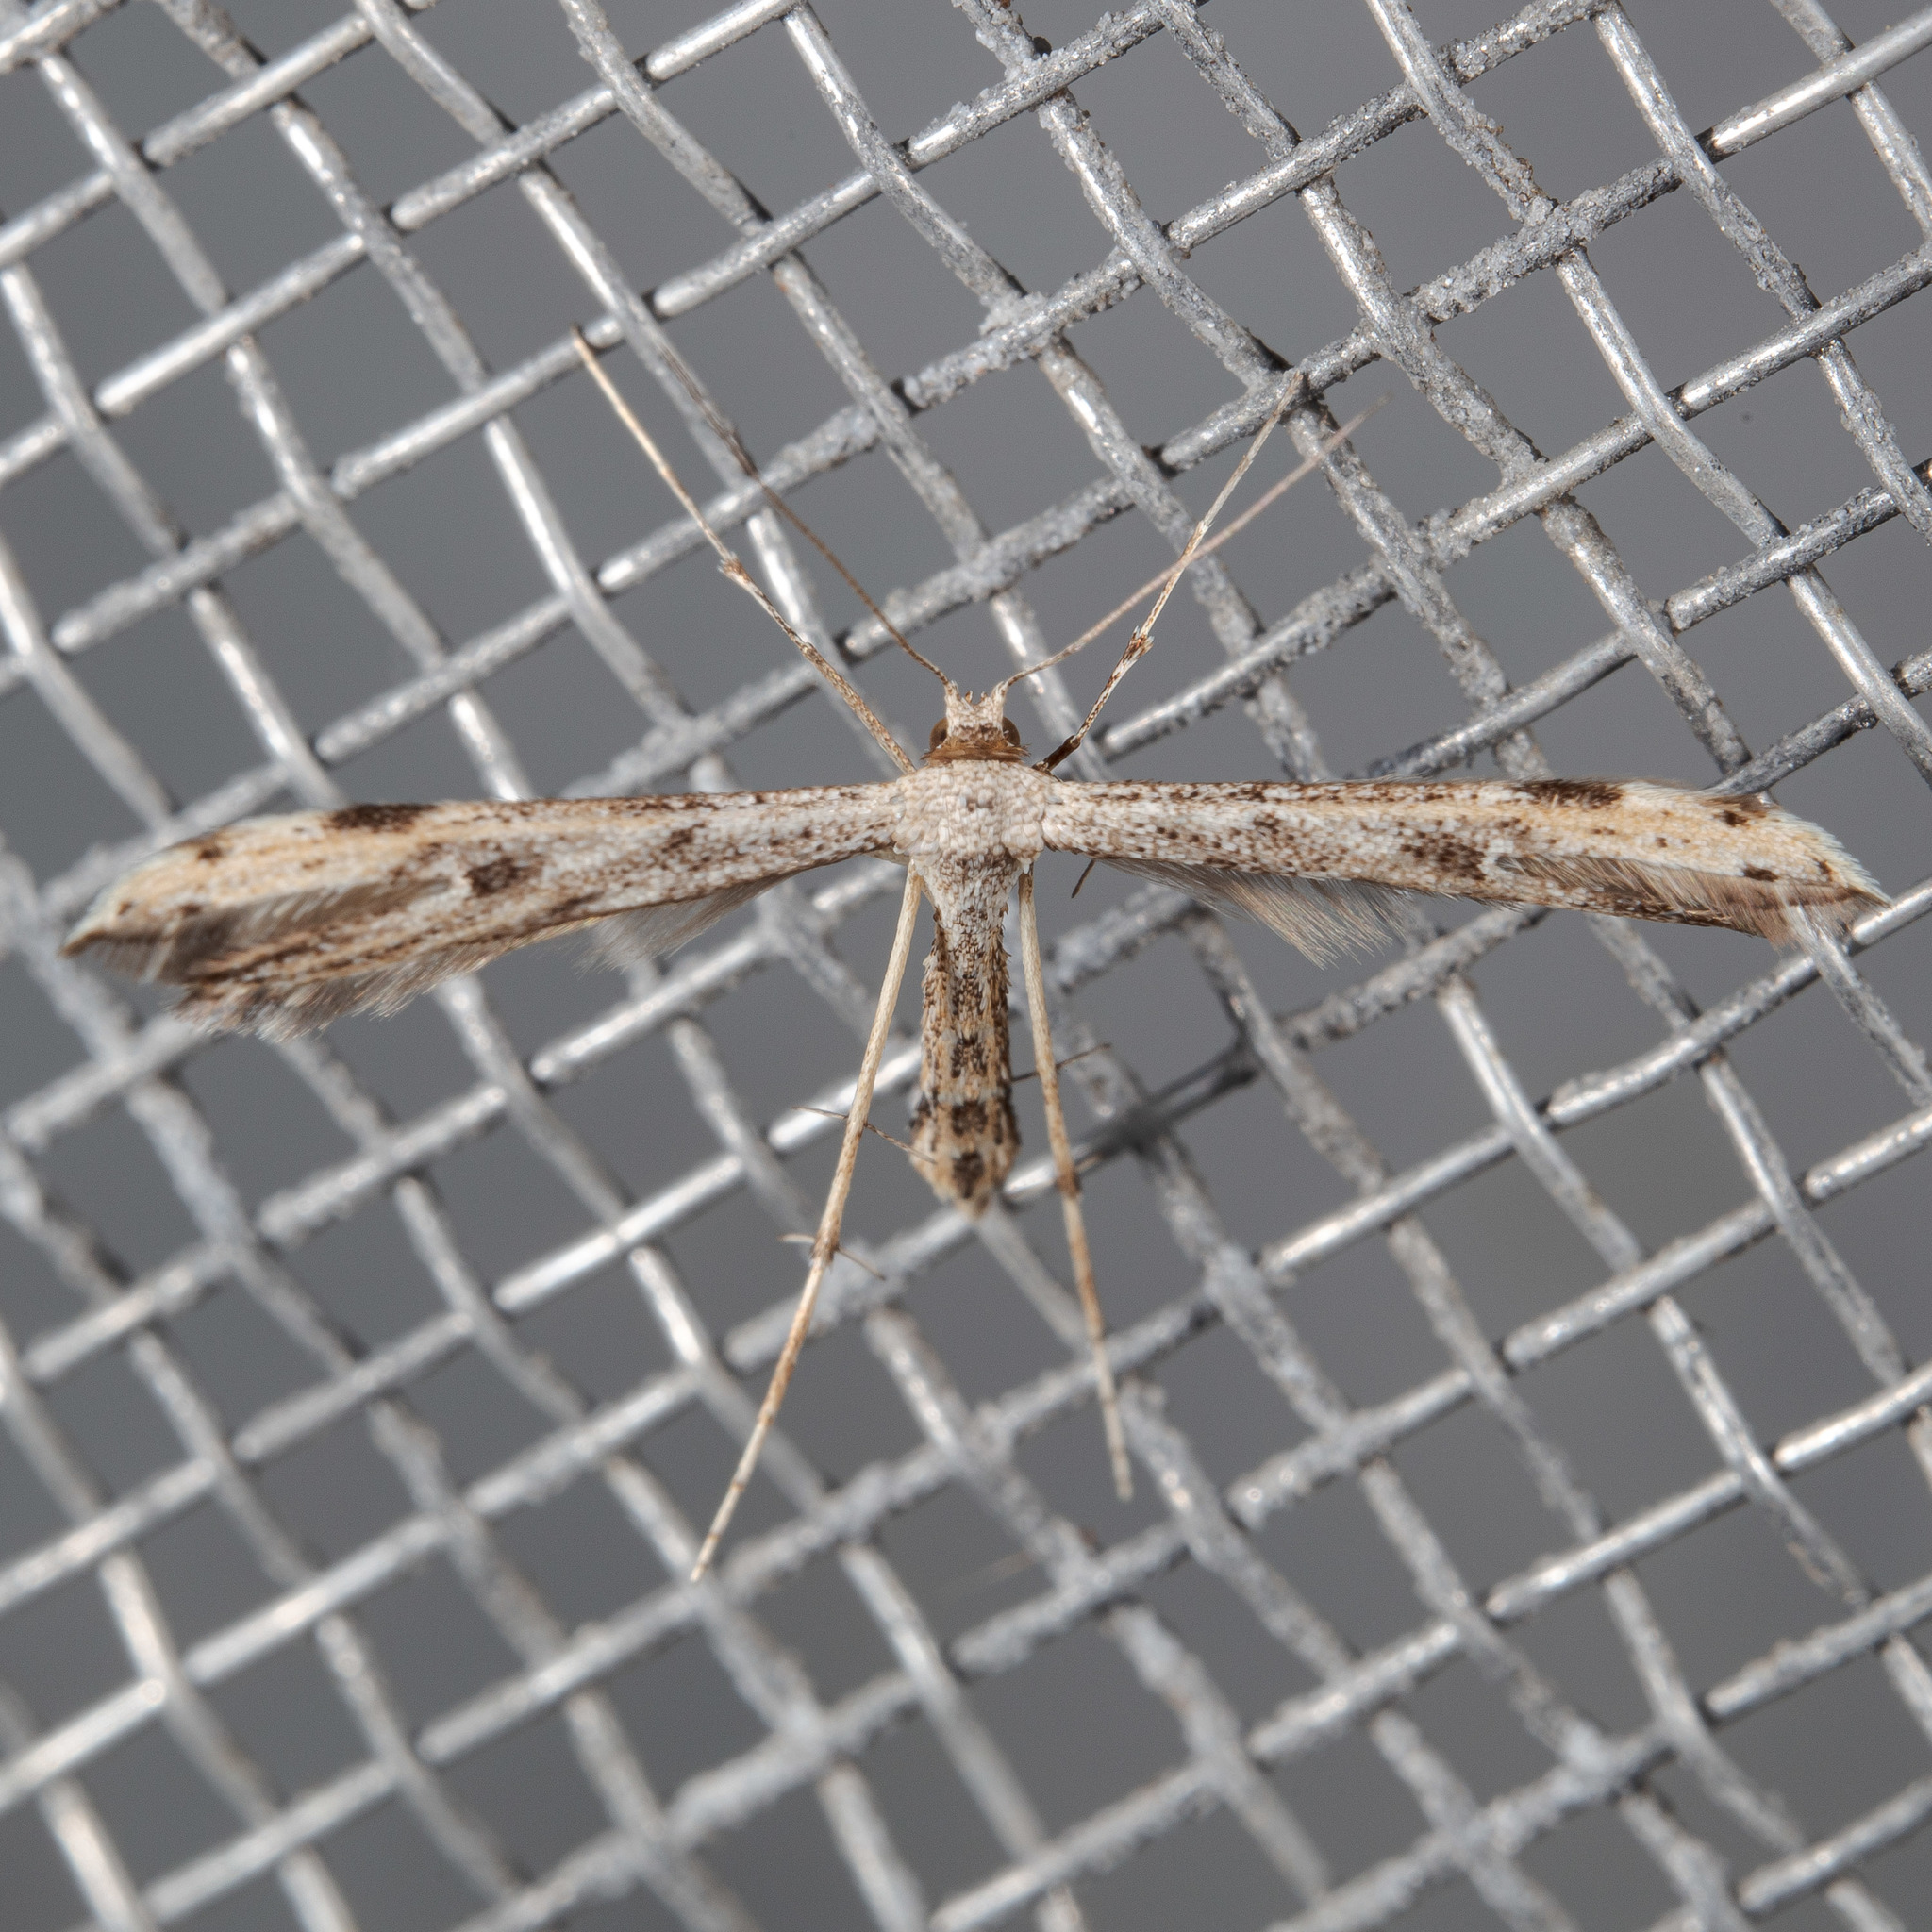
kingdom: Animalia
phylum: Arthropoda
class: Insecta
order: Lepidoptera
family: Pterophoridae
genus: Adaina
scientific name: Adaina ambrosiae
